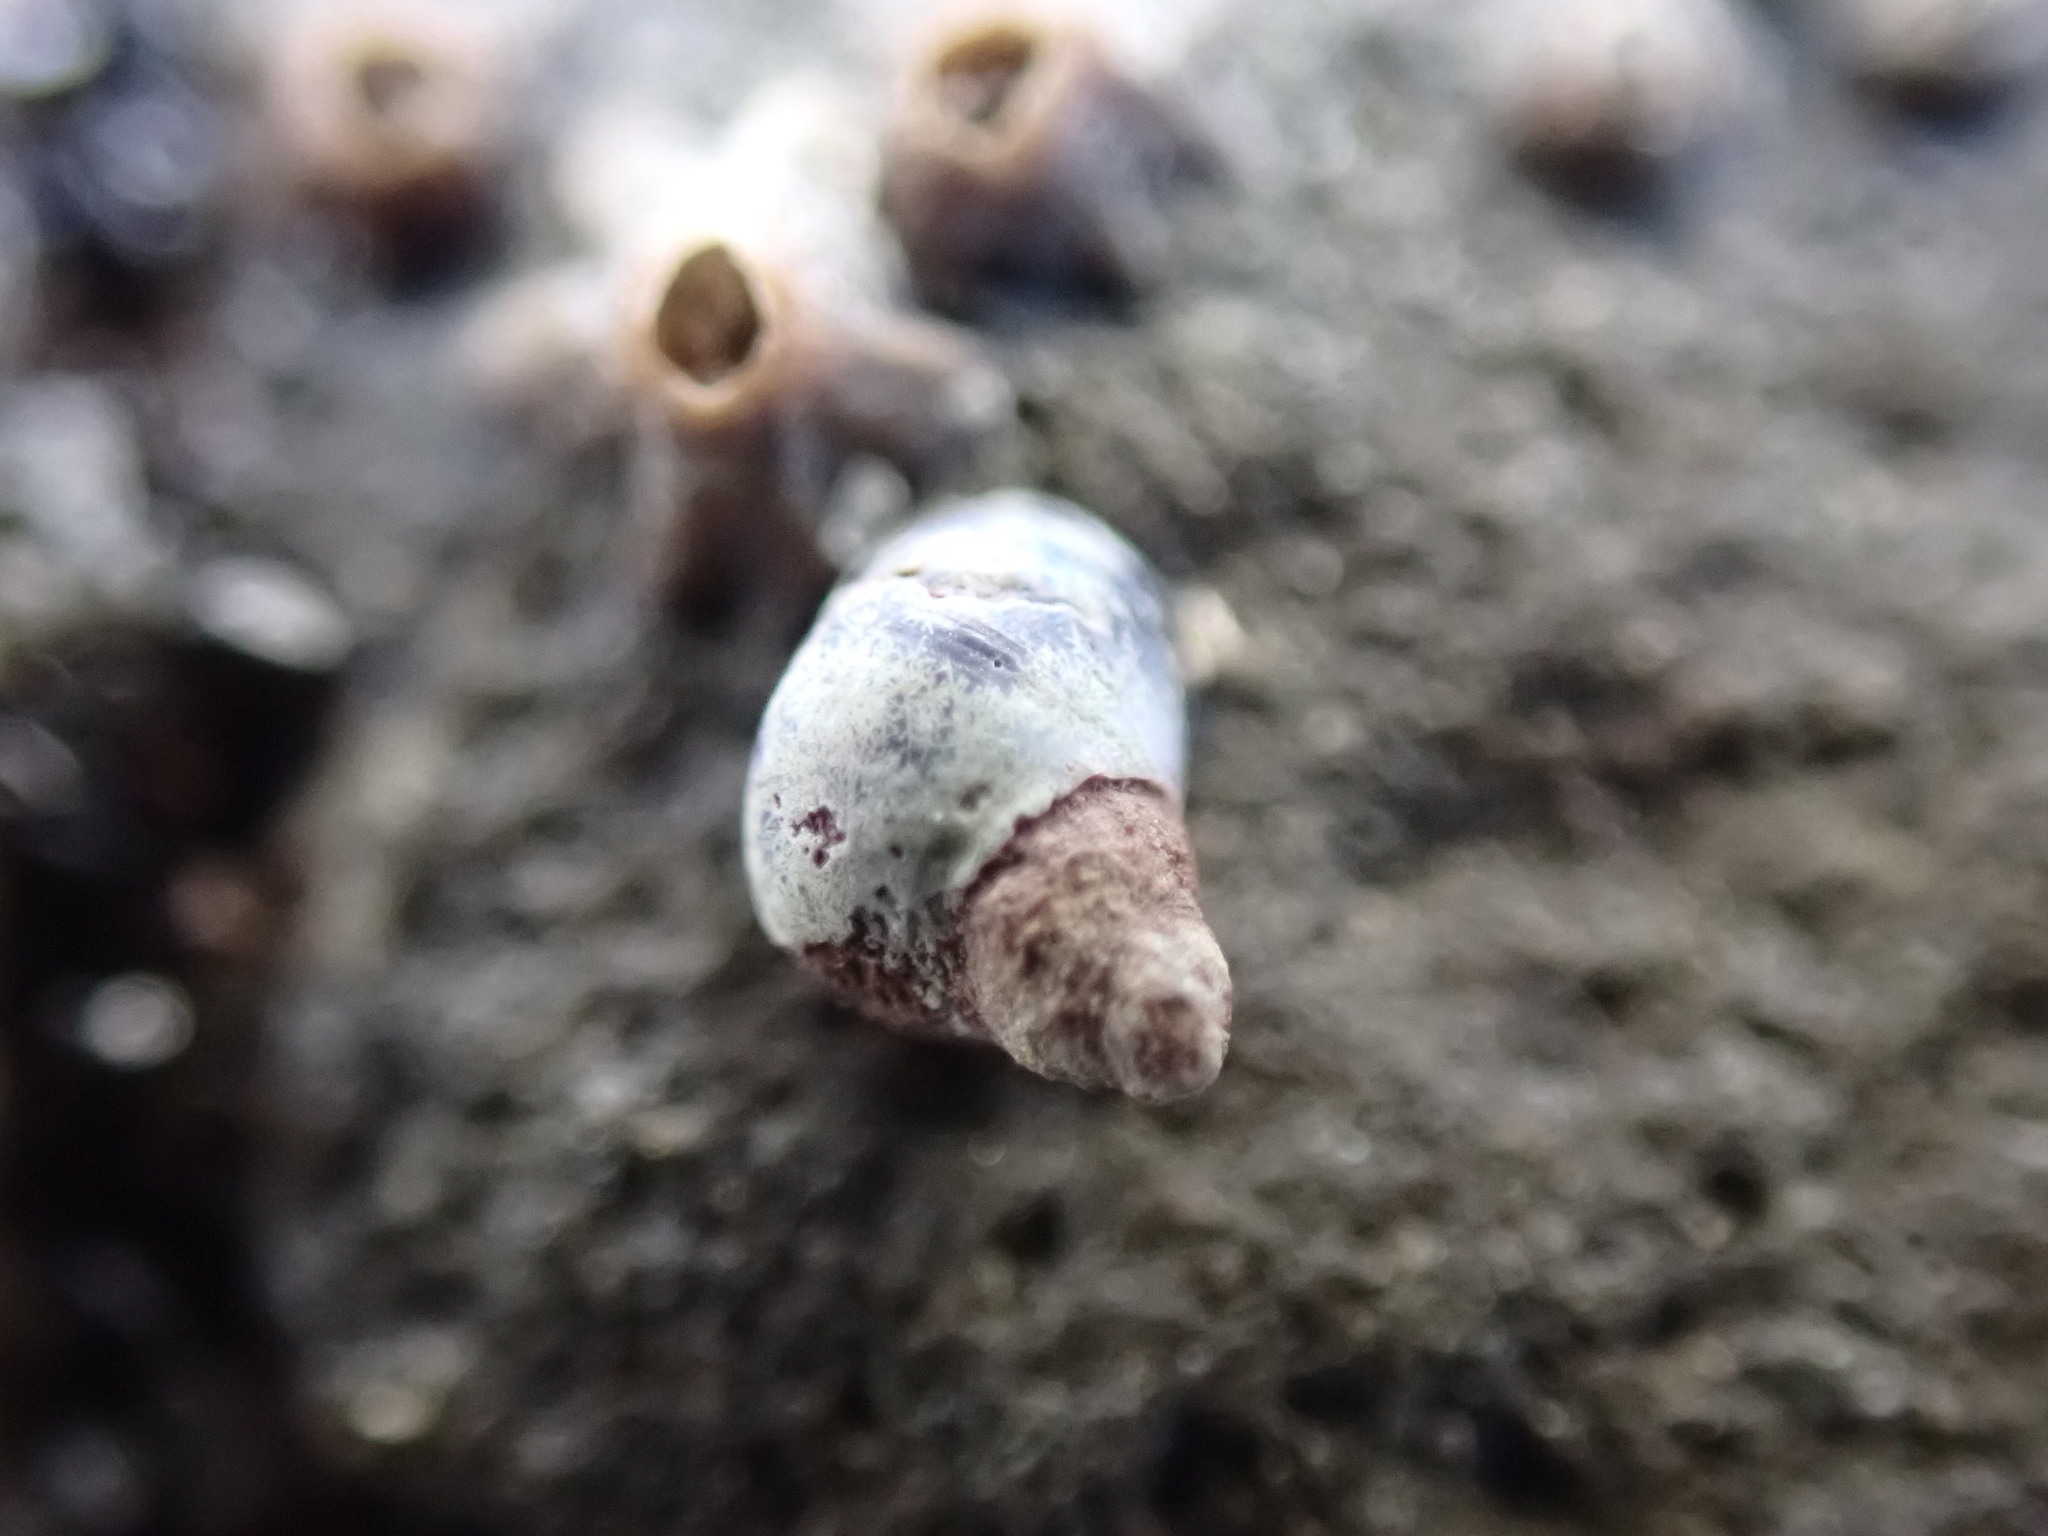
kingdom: Animalia
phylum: Mollusca
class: Gastropoda
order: Littorinimorpha
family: Littorinidae
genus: Austrolittorina
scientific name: Austrolittorina antipodum
